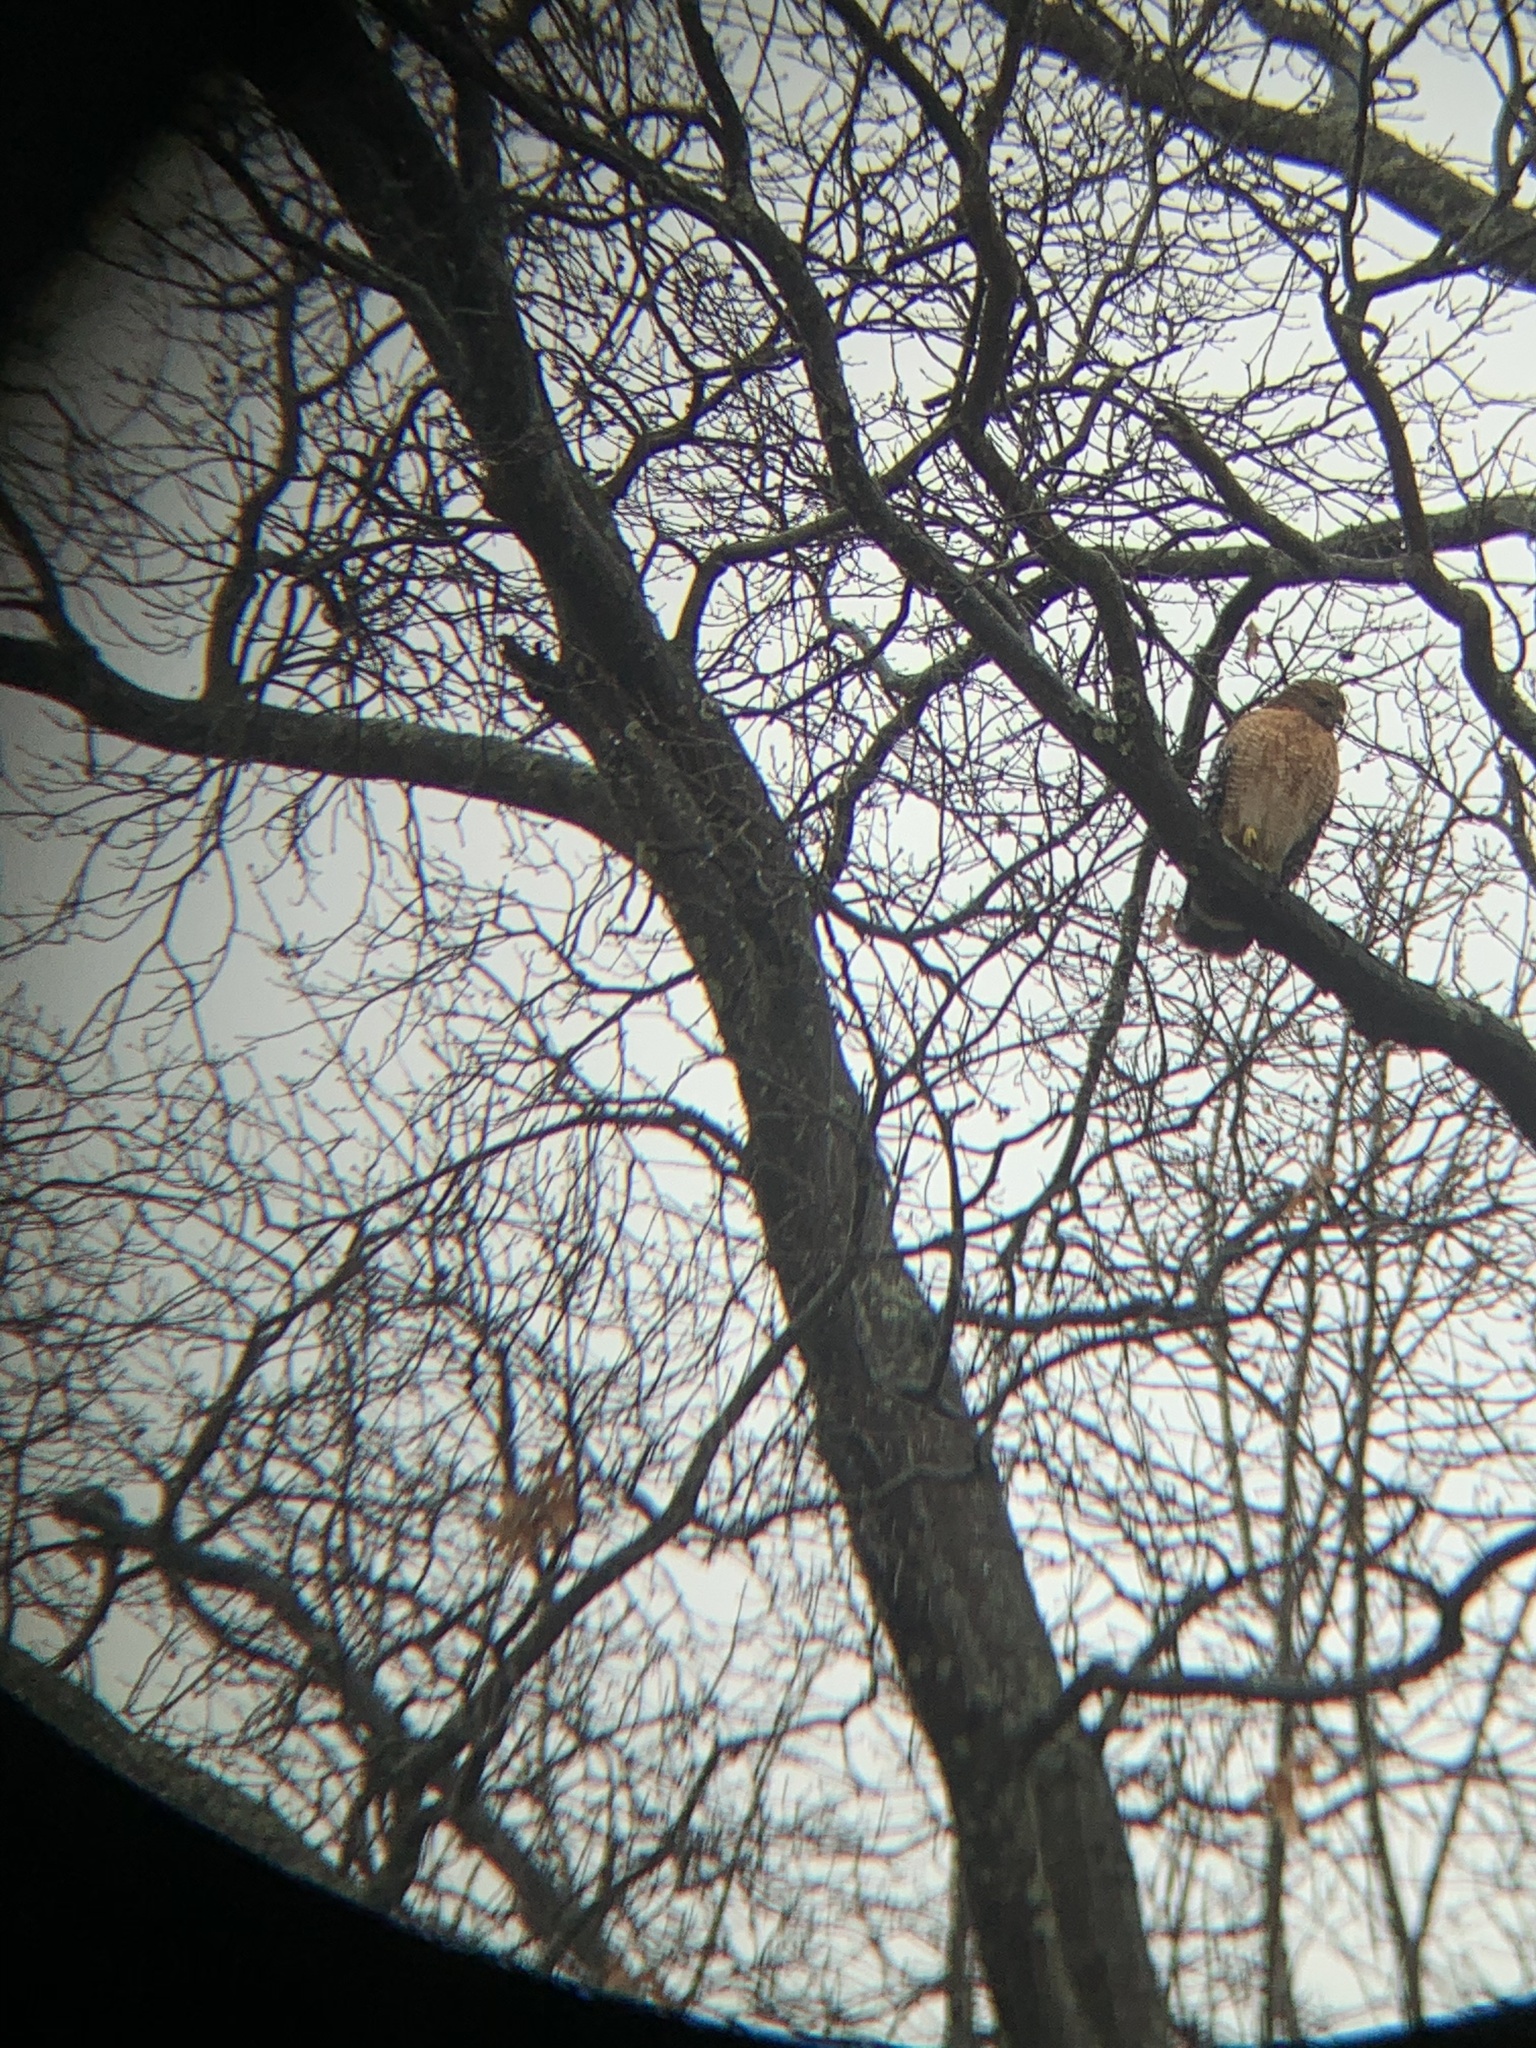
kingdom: Animalia
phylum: Chordata
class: Aves
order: Accipitriformes
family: Accipitridae
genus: Buteo
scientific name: Buteo lineatus
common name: Red-shouldered hawk
